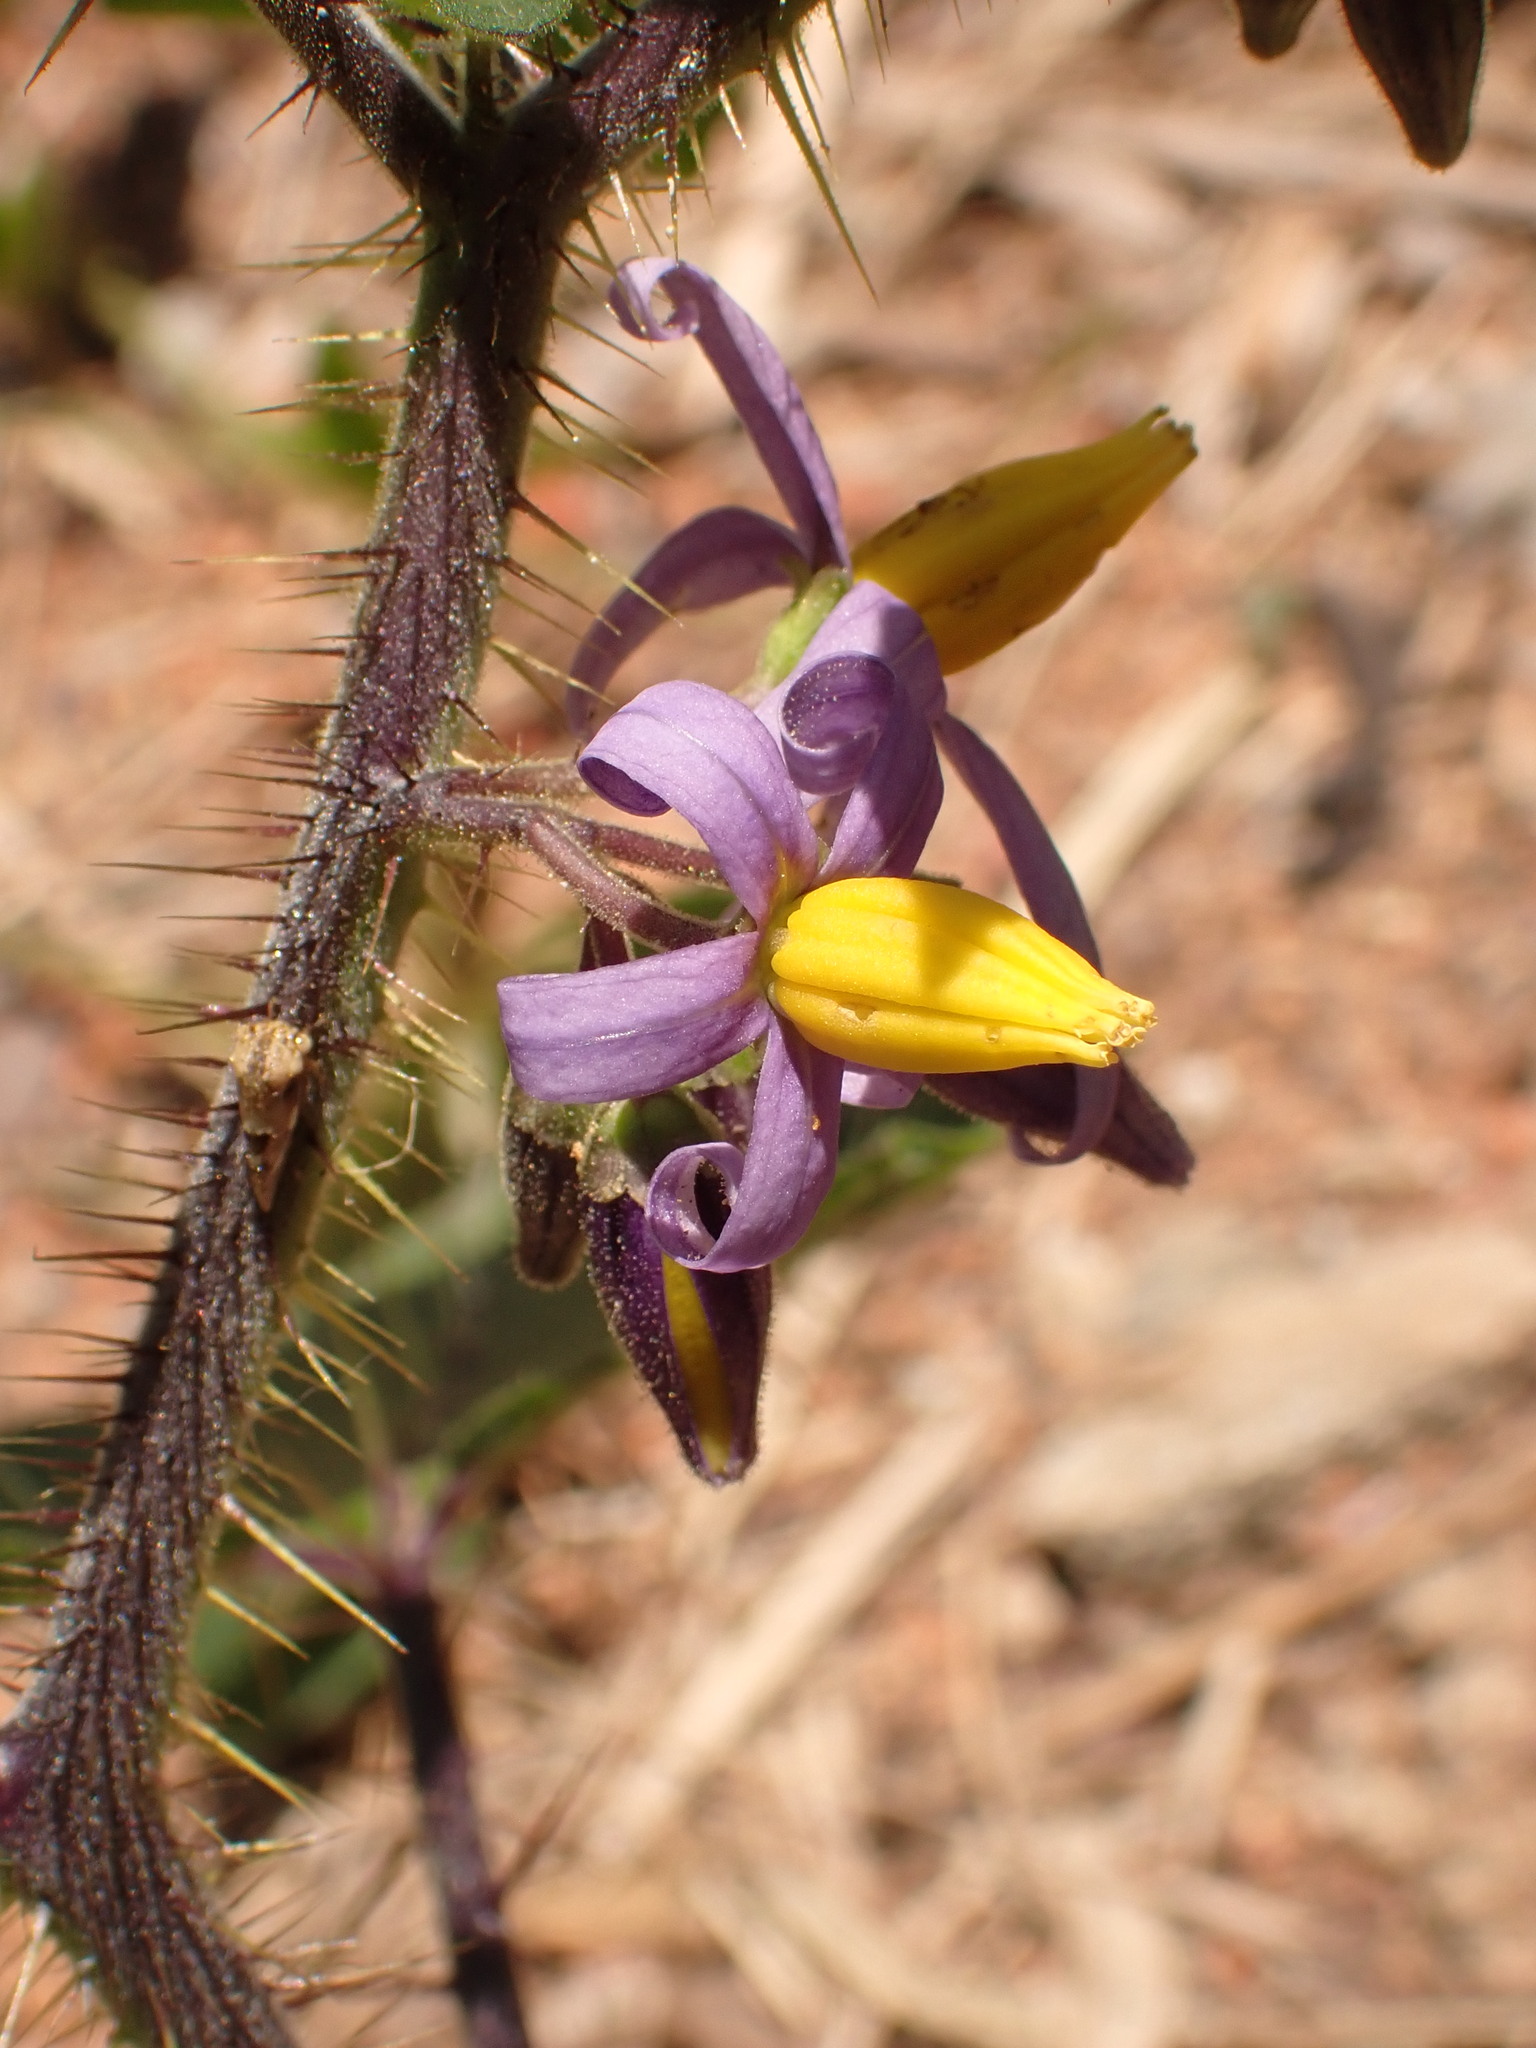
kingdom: Plantae
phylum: Tracheophyta
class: Magnoliopsida
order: Solanales
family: Solanaceae
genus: Solanum
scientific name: Solanum palinacanthum
